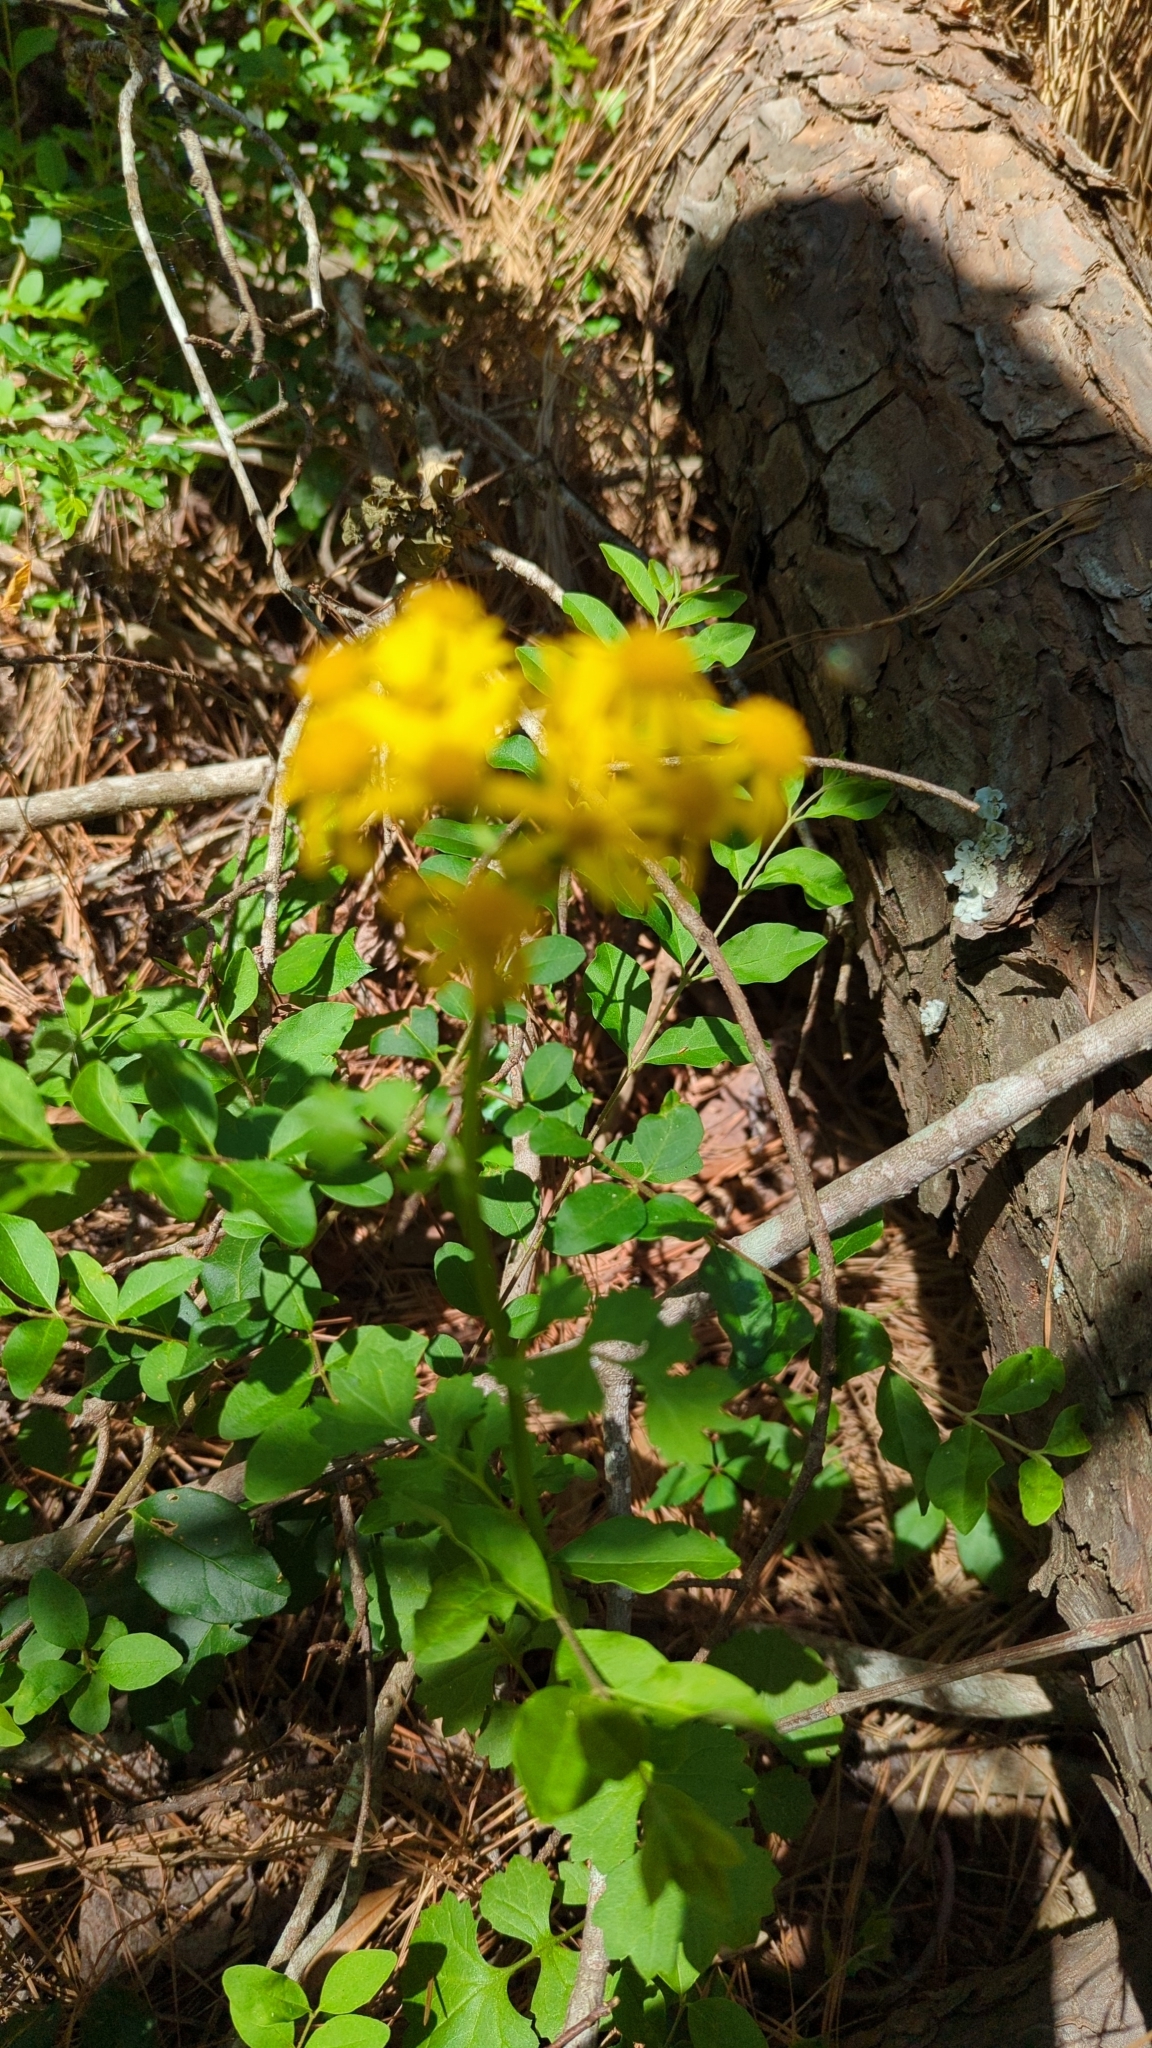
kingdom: Plantae
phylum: Tracheophyta
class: Magnoliopsida
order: Asterales
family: Asteraceae
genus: Packera
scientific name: Packera glabella
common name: Butterweed
